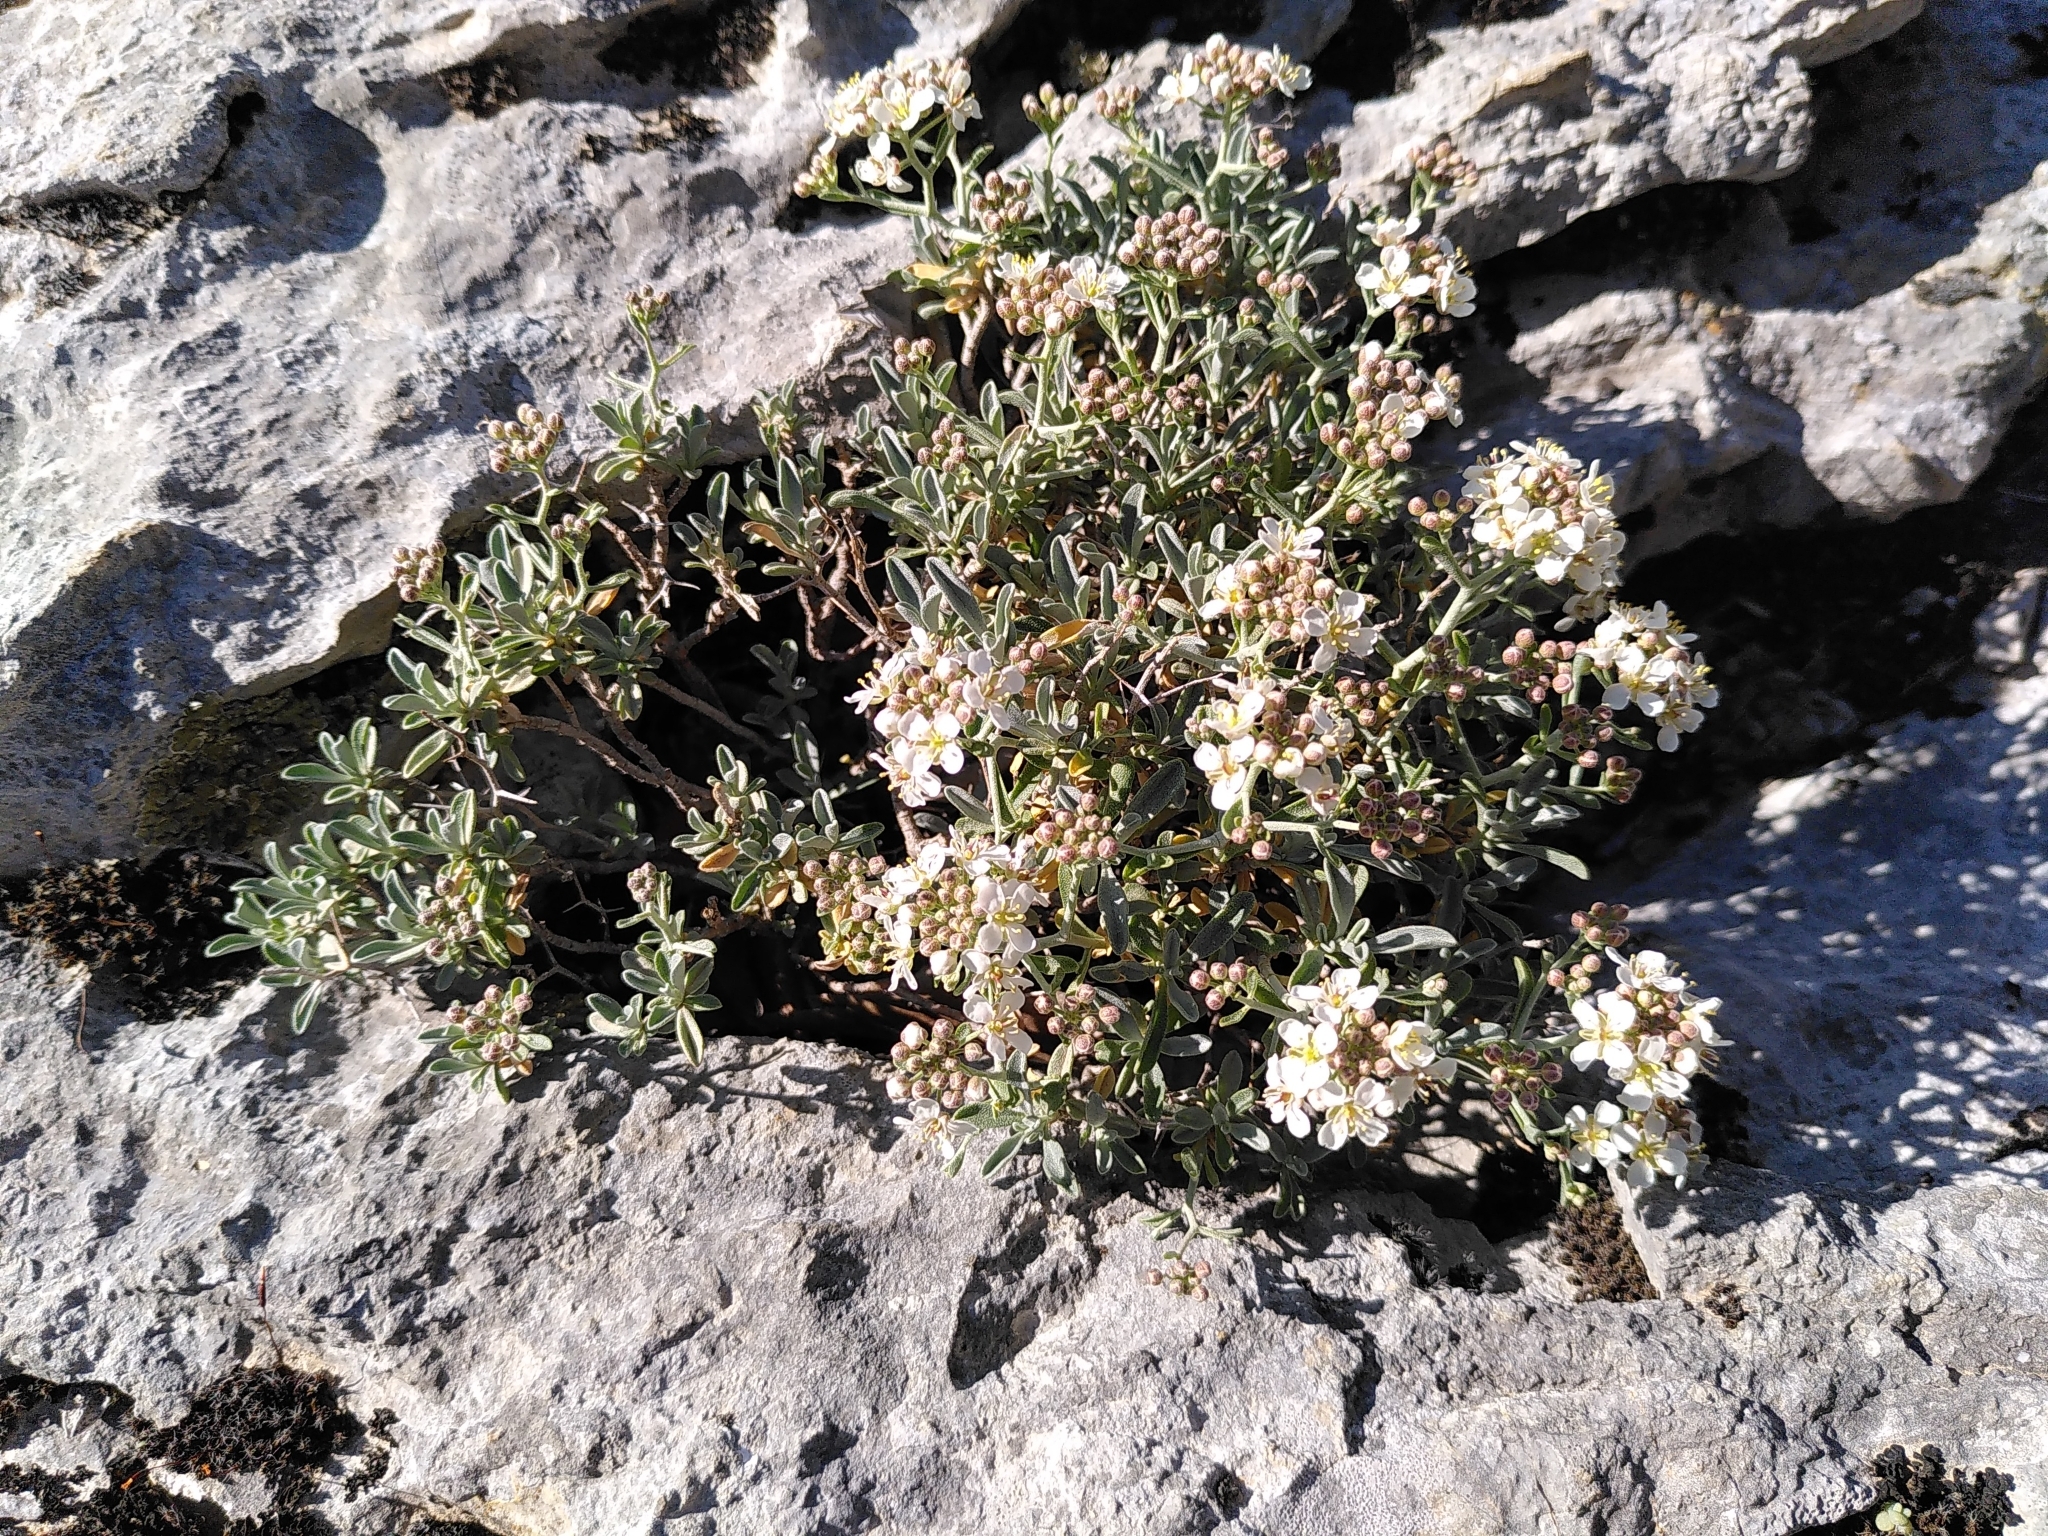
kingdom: Plantae
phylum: Tracheophyta
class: Magnoliopsida
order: Brassicales
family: Brassicaceae
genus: Hormathophylla
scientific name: Hormathophylla spinosa
